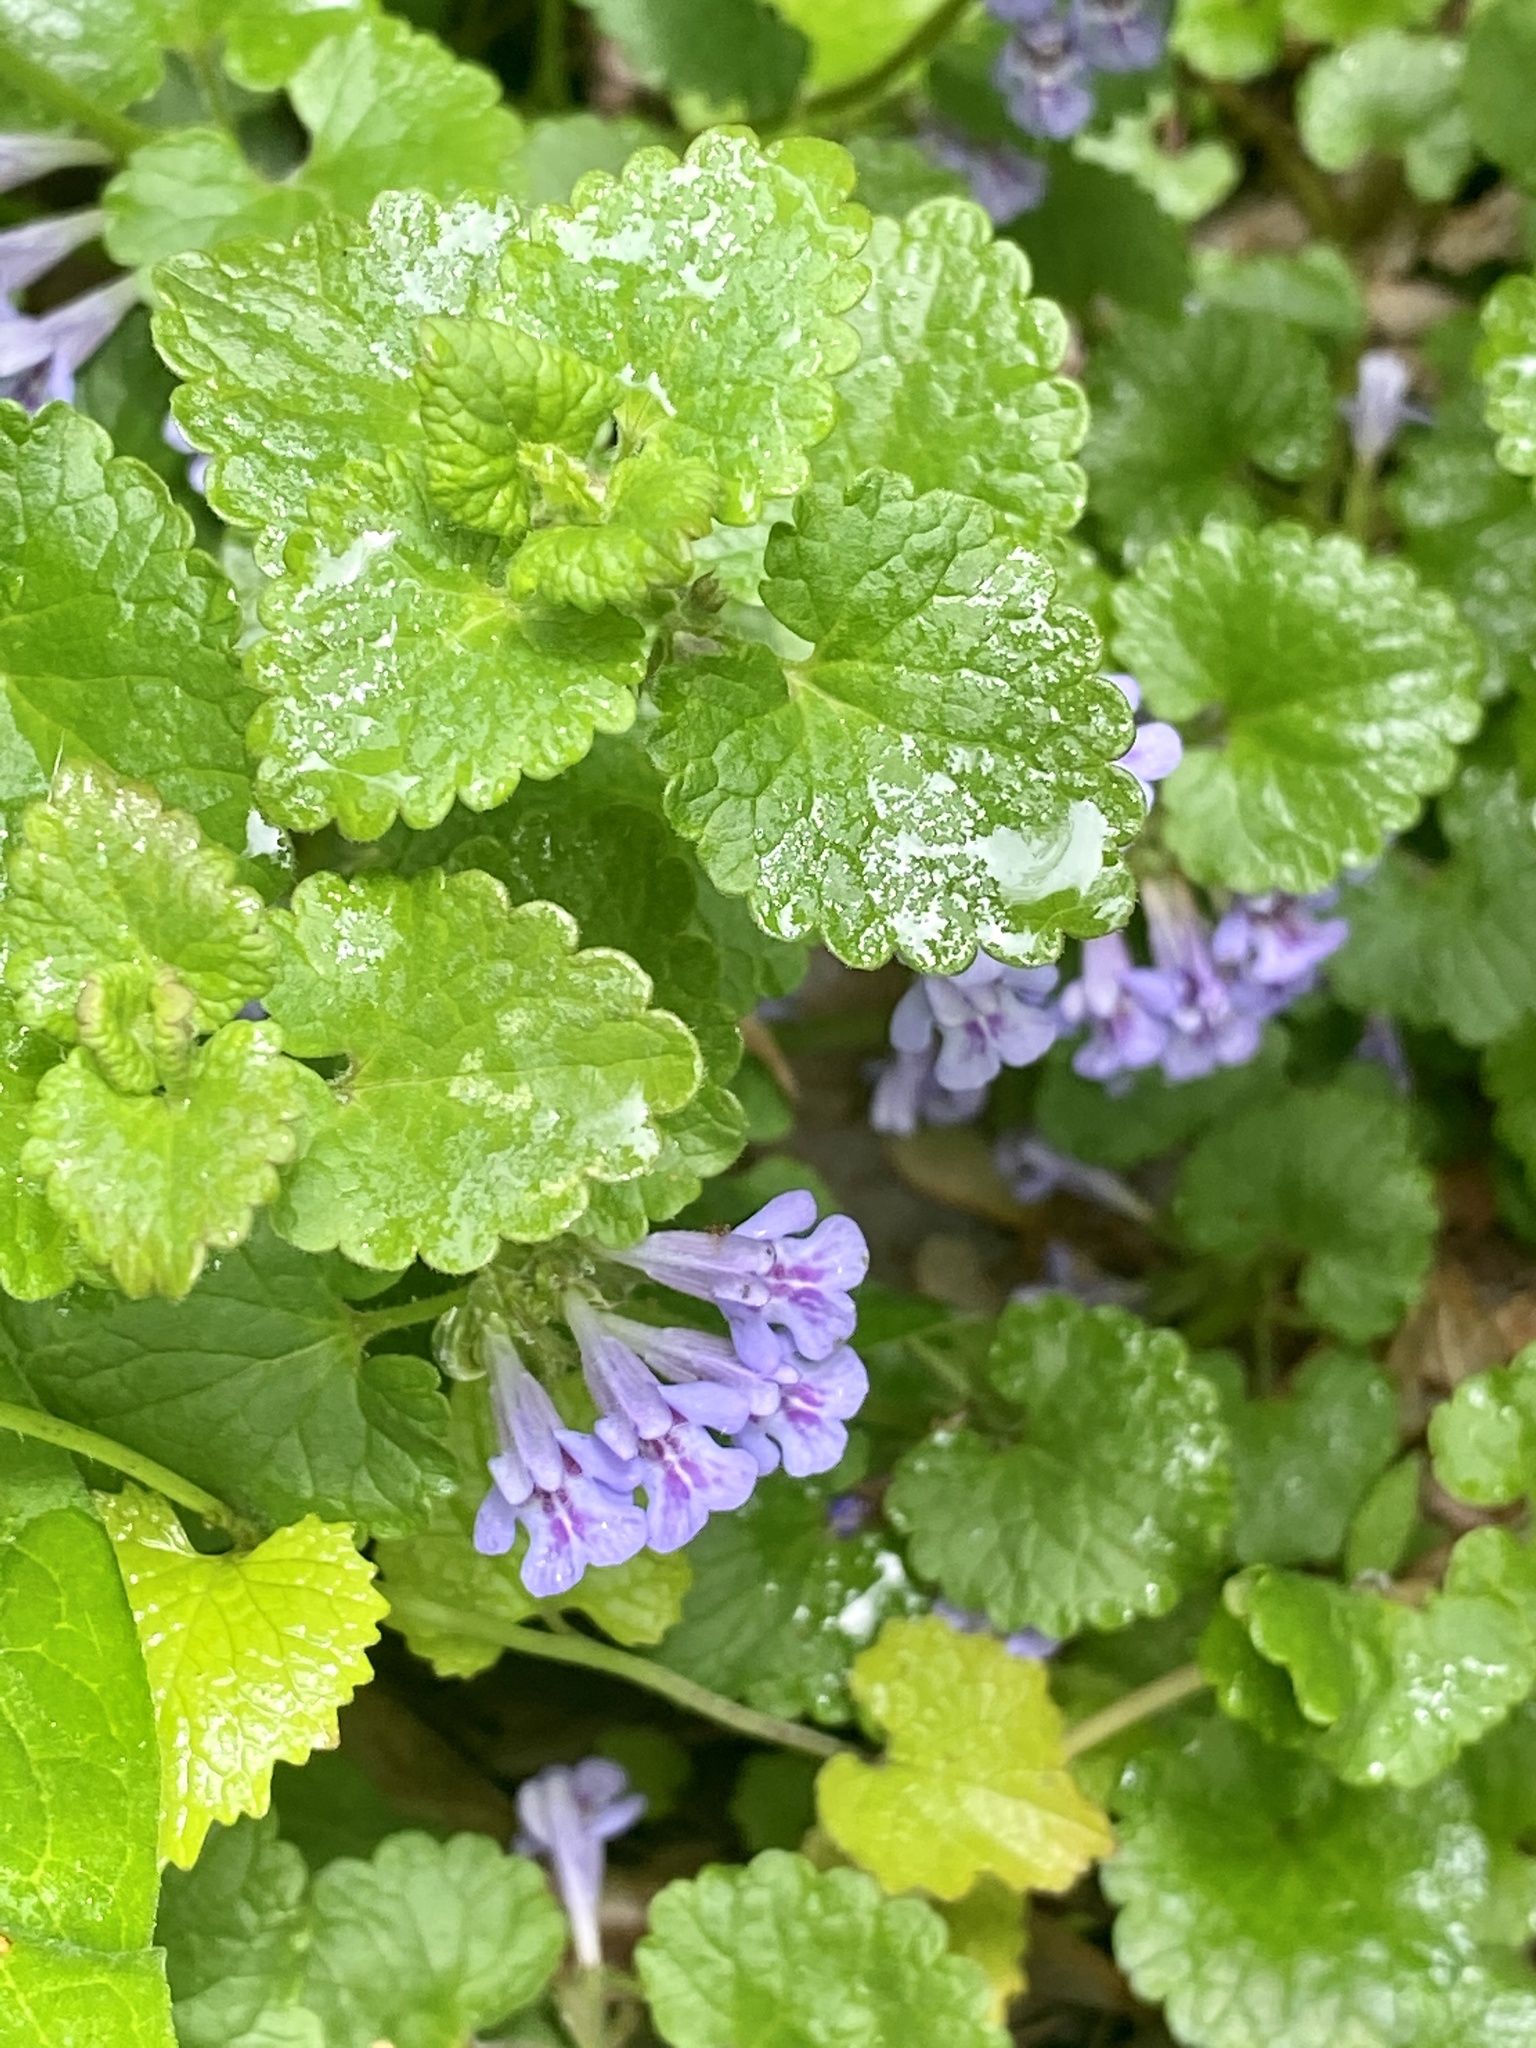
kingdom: Plantae
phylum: Tracheophyta
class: Magnoliopsida
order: Lamiales
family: Lamiaceae
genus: Glechoma
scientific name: Glechoma hederacea
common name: Ground ivy
